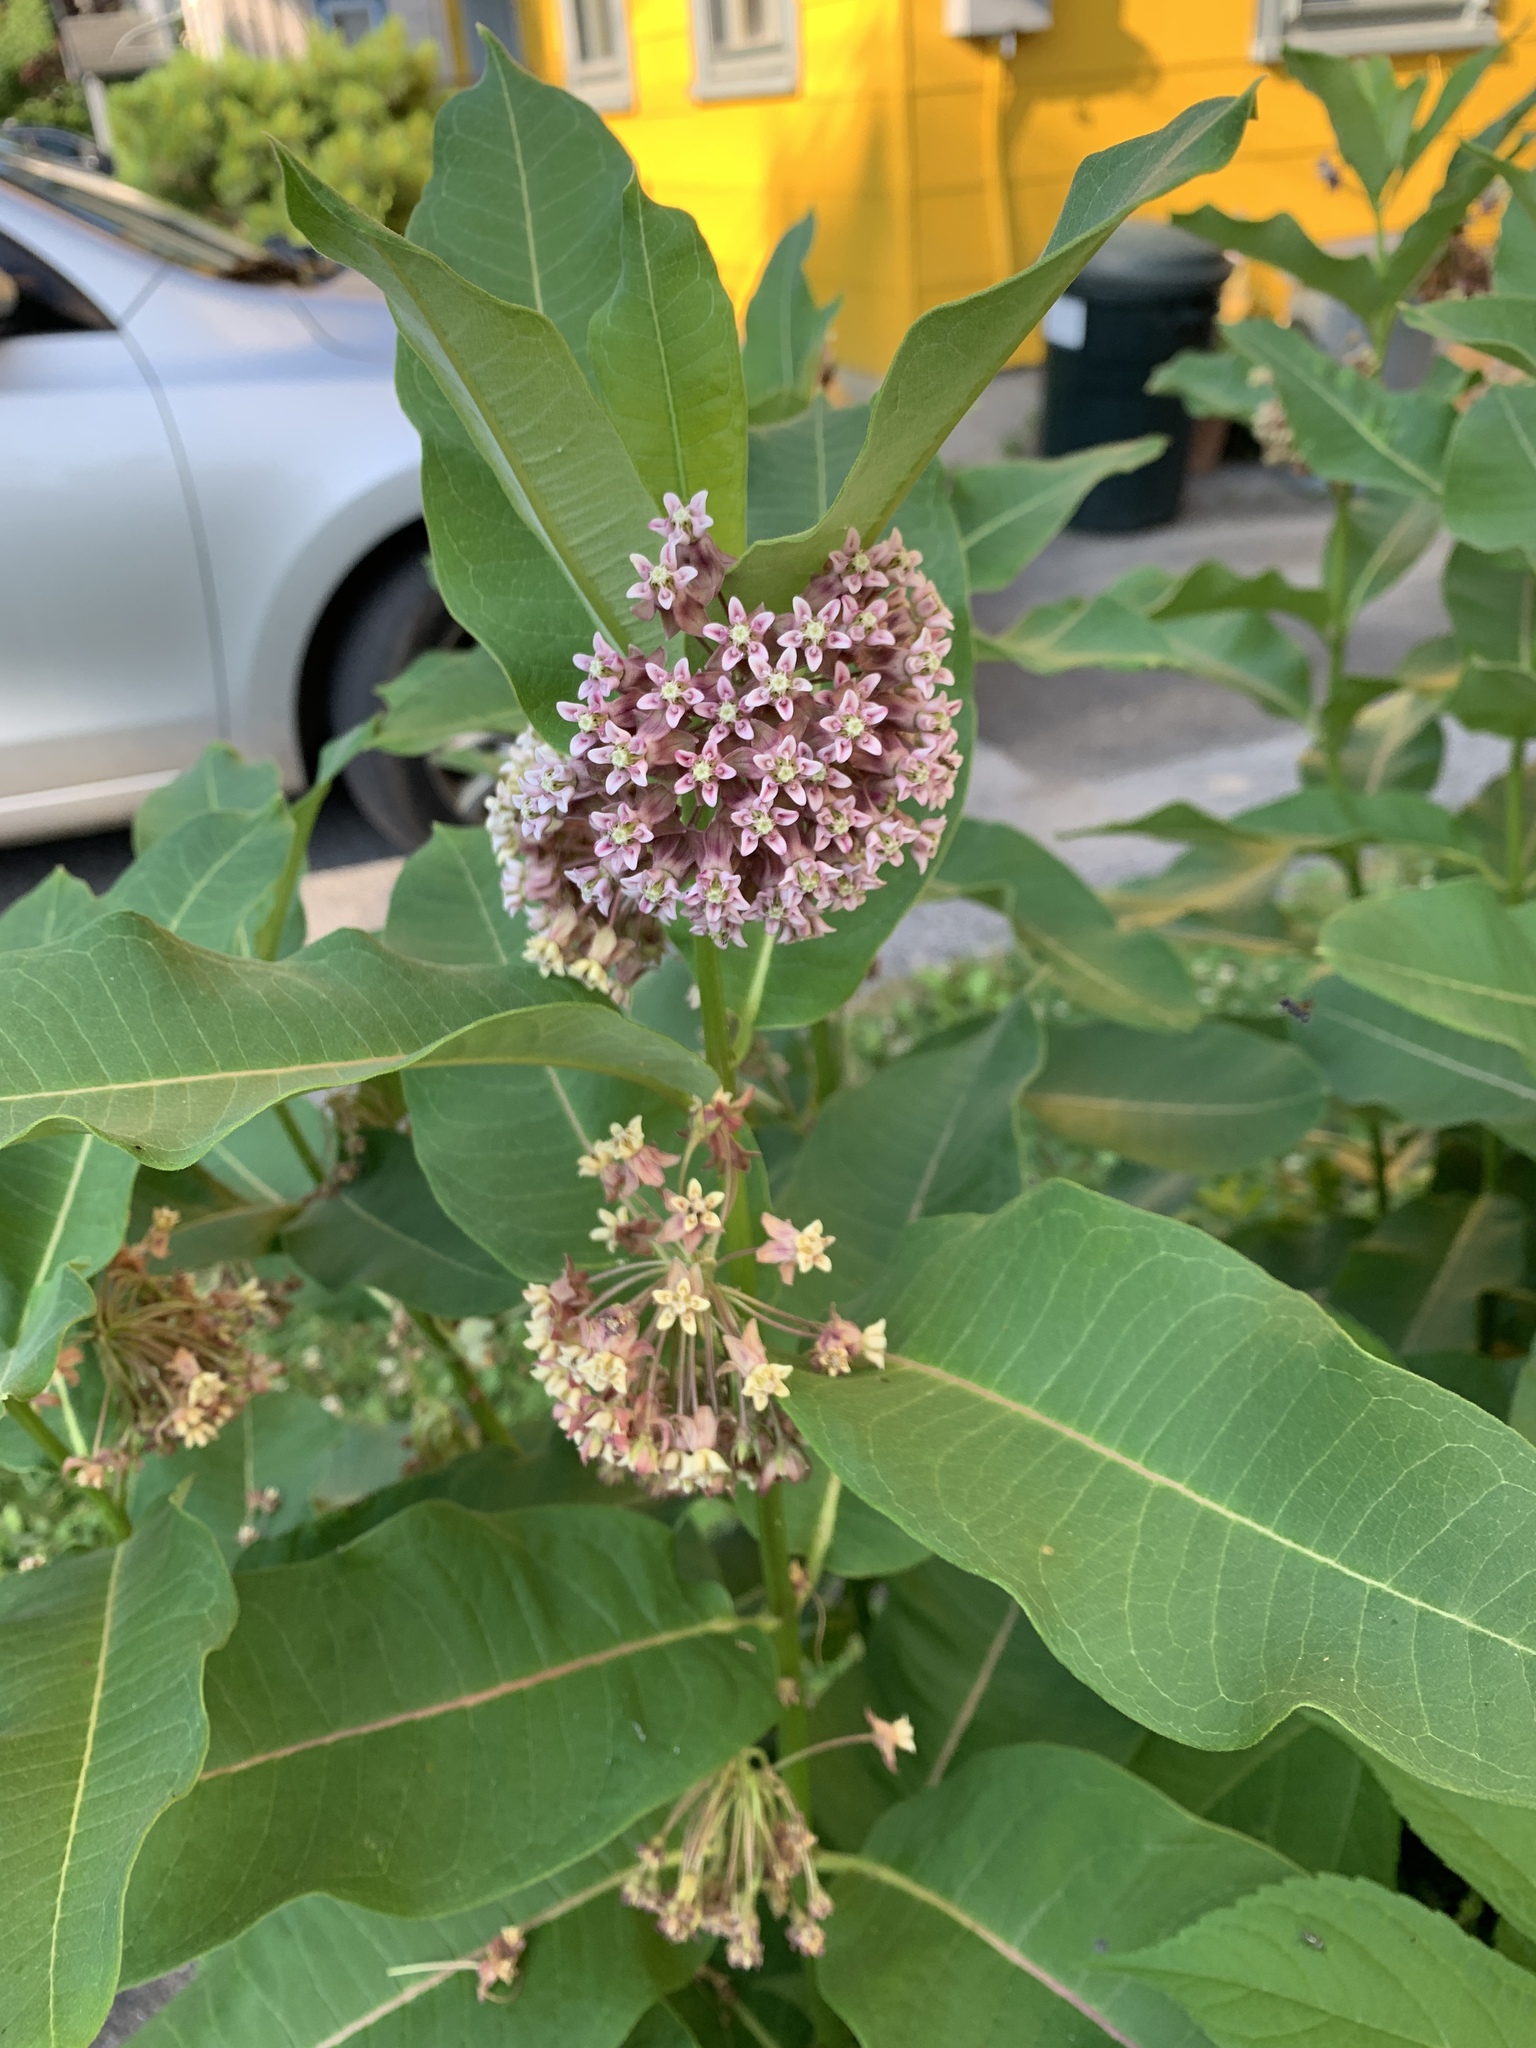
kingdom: Plantae
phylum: Tracheophyta
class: Magnoliopsida
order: Gentianales
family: Apocynaceae
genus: Asclepias
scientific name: Asclepias syriaca
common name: Common milkweed
